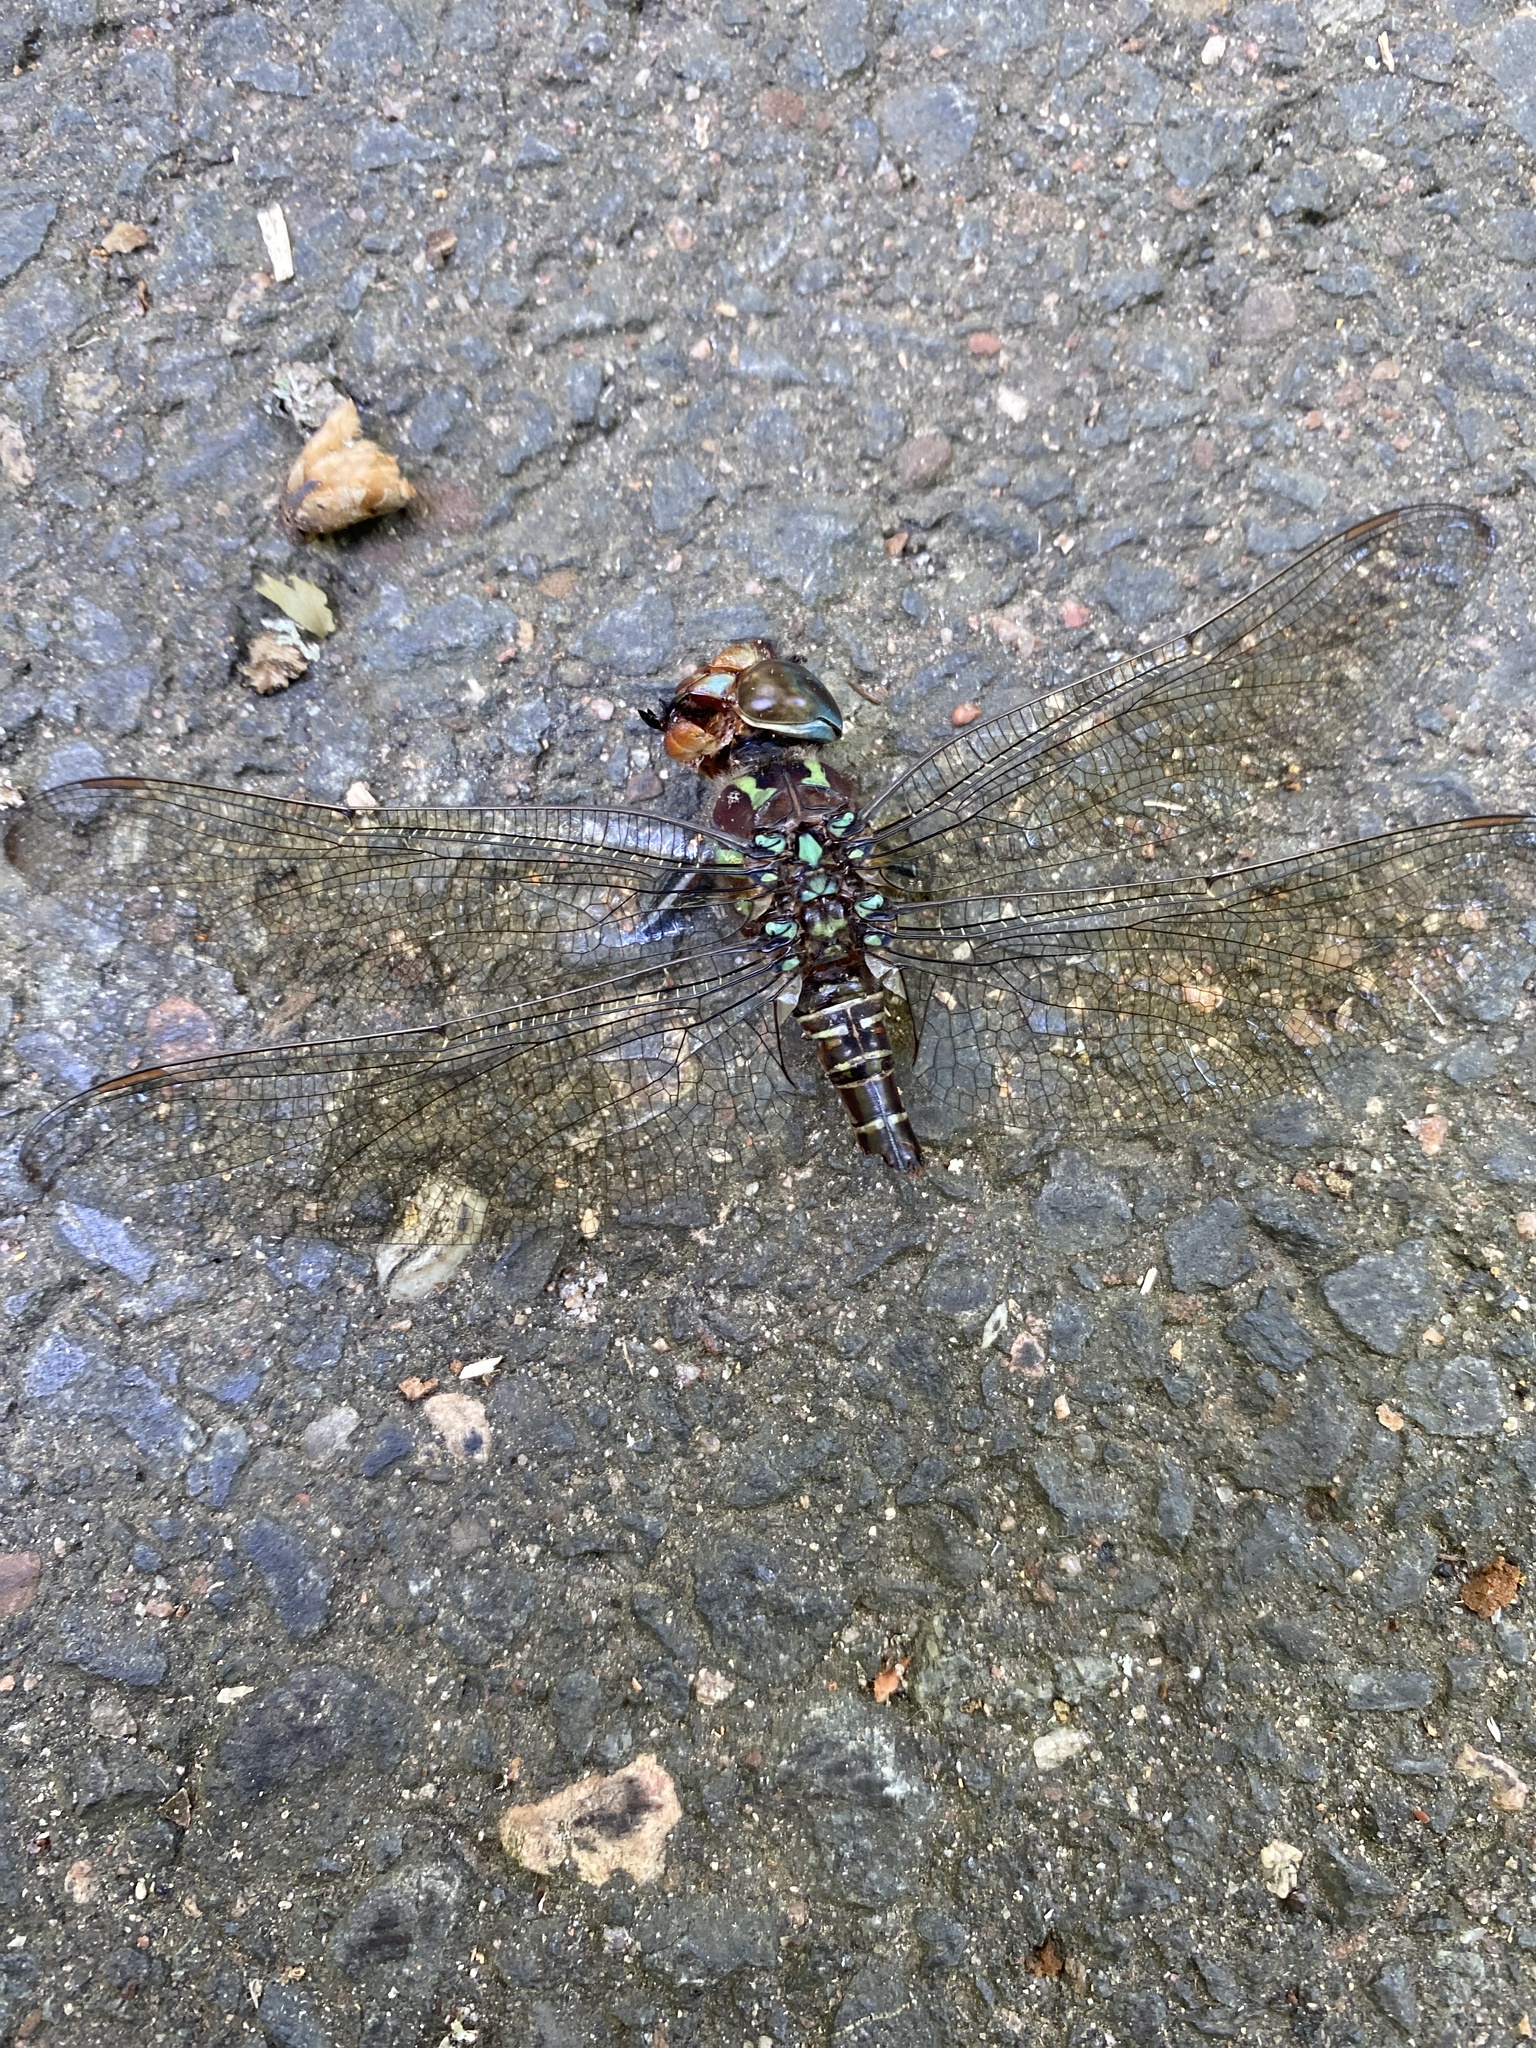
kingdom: Animalia
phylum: Arthropoda
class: Insecta
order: Odonata
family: Aeshnidae
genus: Epiaeschna
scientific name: Epiaeschna heros
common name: Swamp darner
